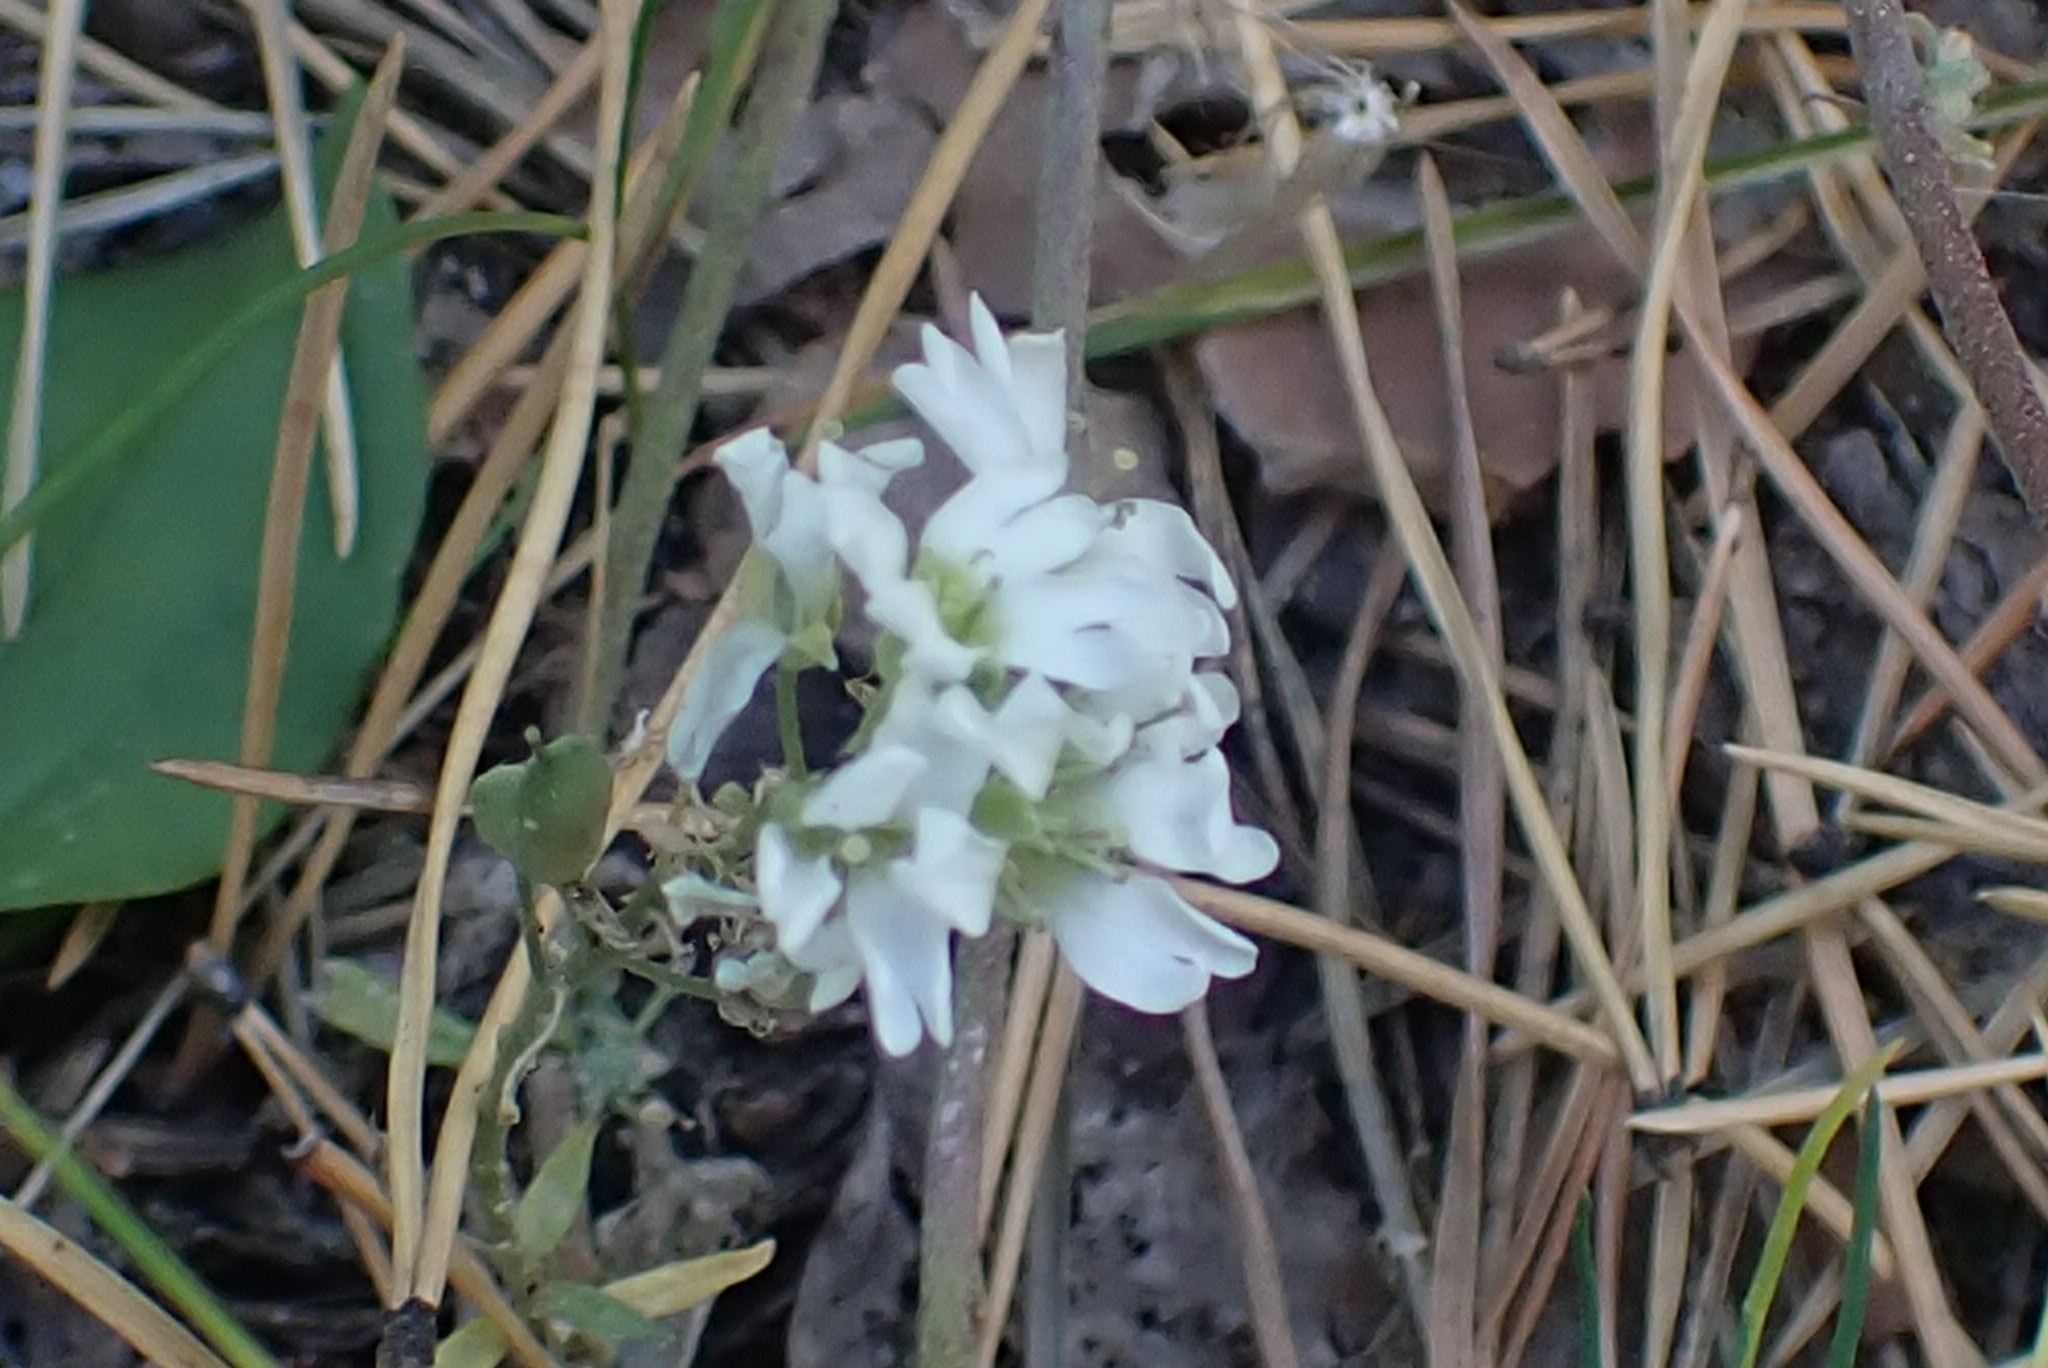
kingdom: Plantae
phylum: Tracheophyta
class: Magnoliopsida
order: Brassicales
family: Brassicaceae
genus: Berteroa
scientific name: Berteroa incana
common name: Hoary alison
